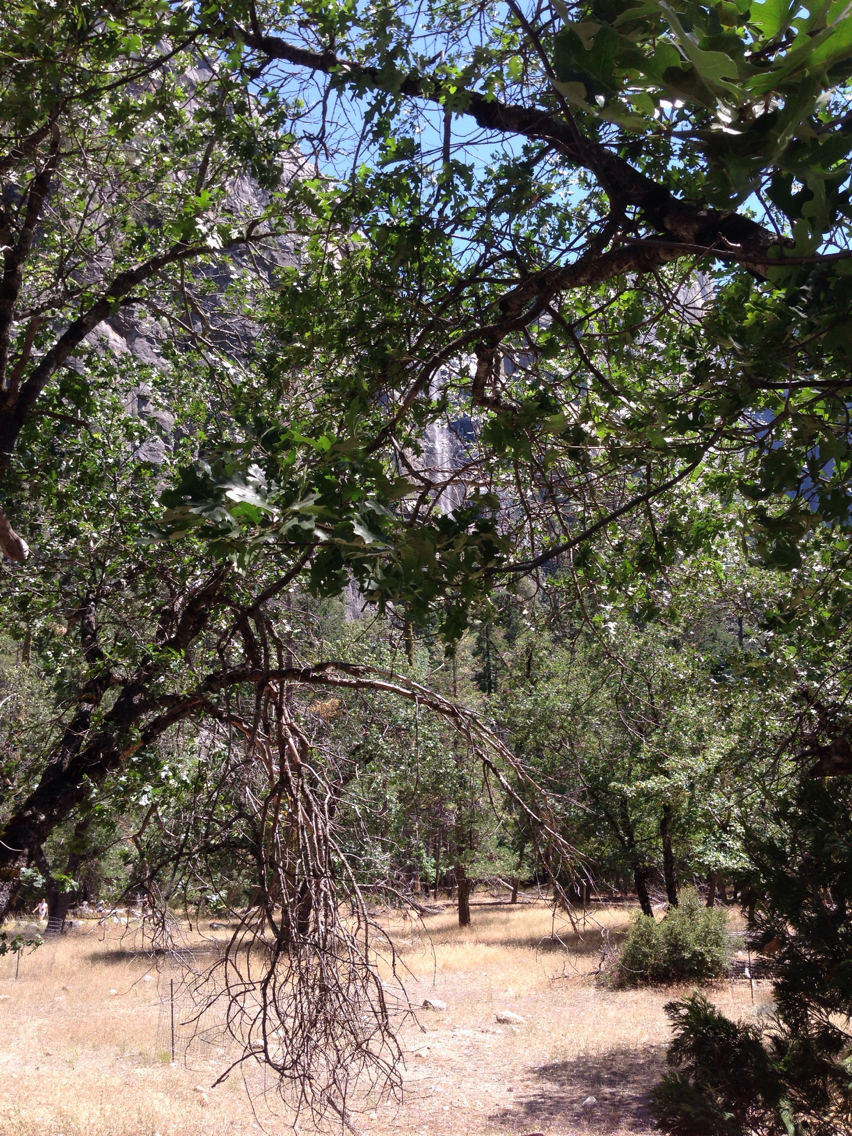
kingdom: Plantae
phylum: Tracheophyta
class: Magnoliopsida
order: Fagales
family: Fagaceae
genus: Quercus
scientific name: Quercus kelloggii
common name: California black oak
